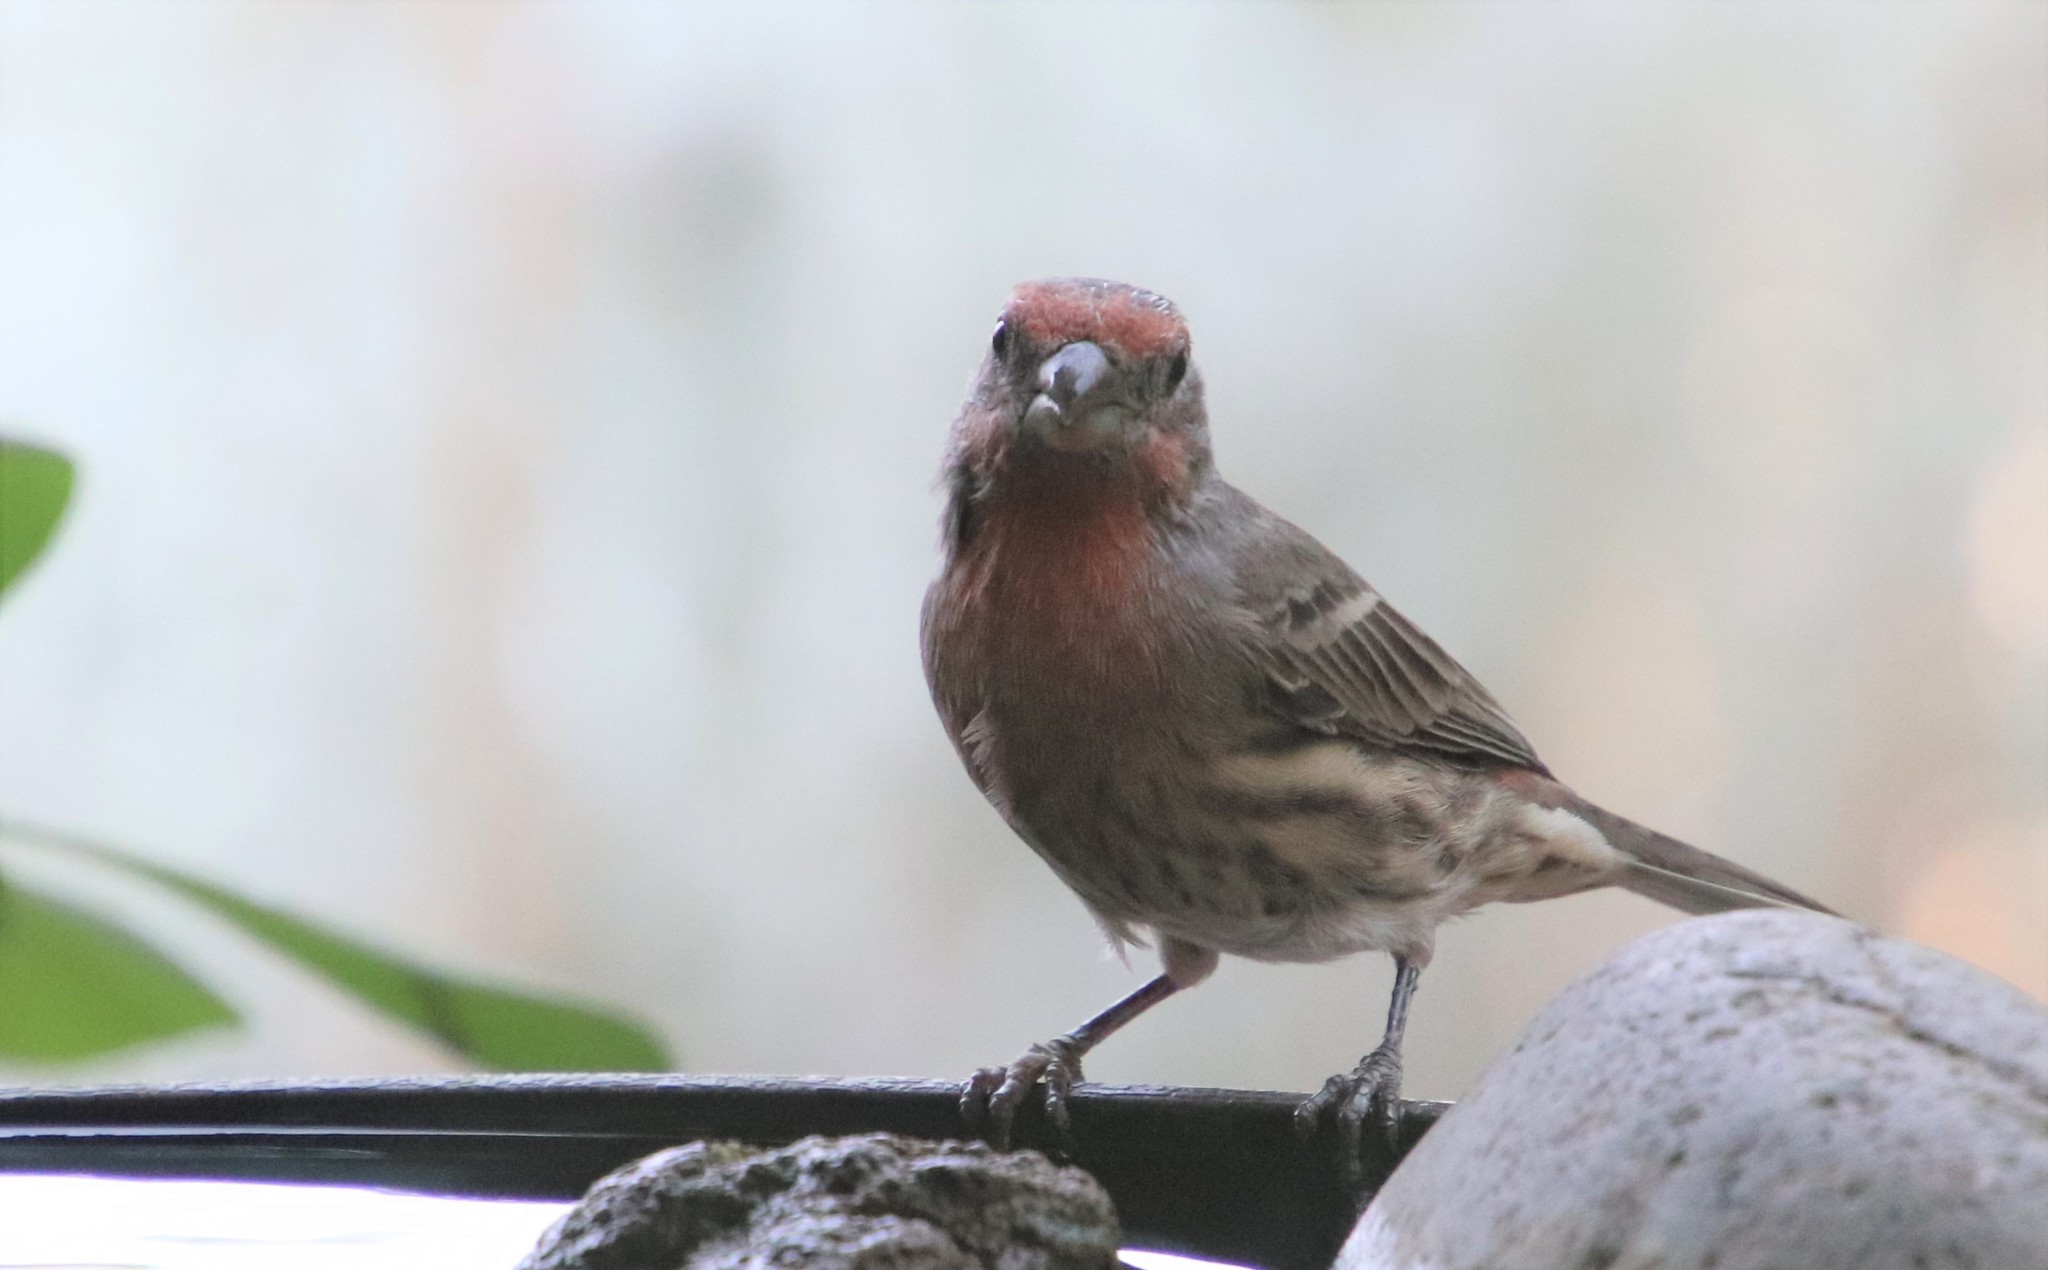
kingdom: Animalia
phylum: Chordata
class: Aves
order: Passeriformes
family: Fringillidae
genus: Haemorhous
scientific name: Haemorhous mexicanus
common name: House finch
